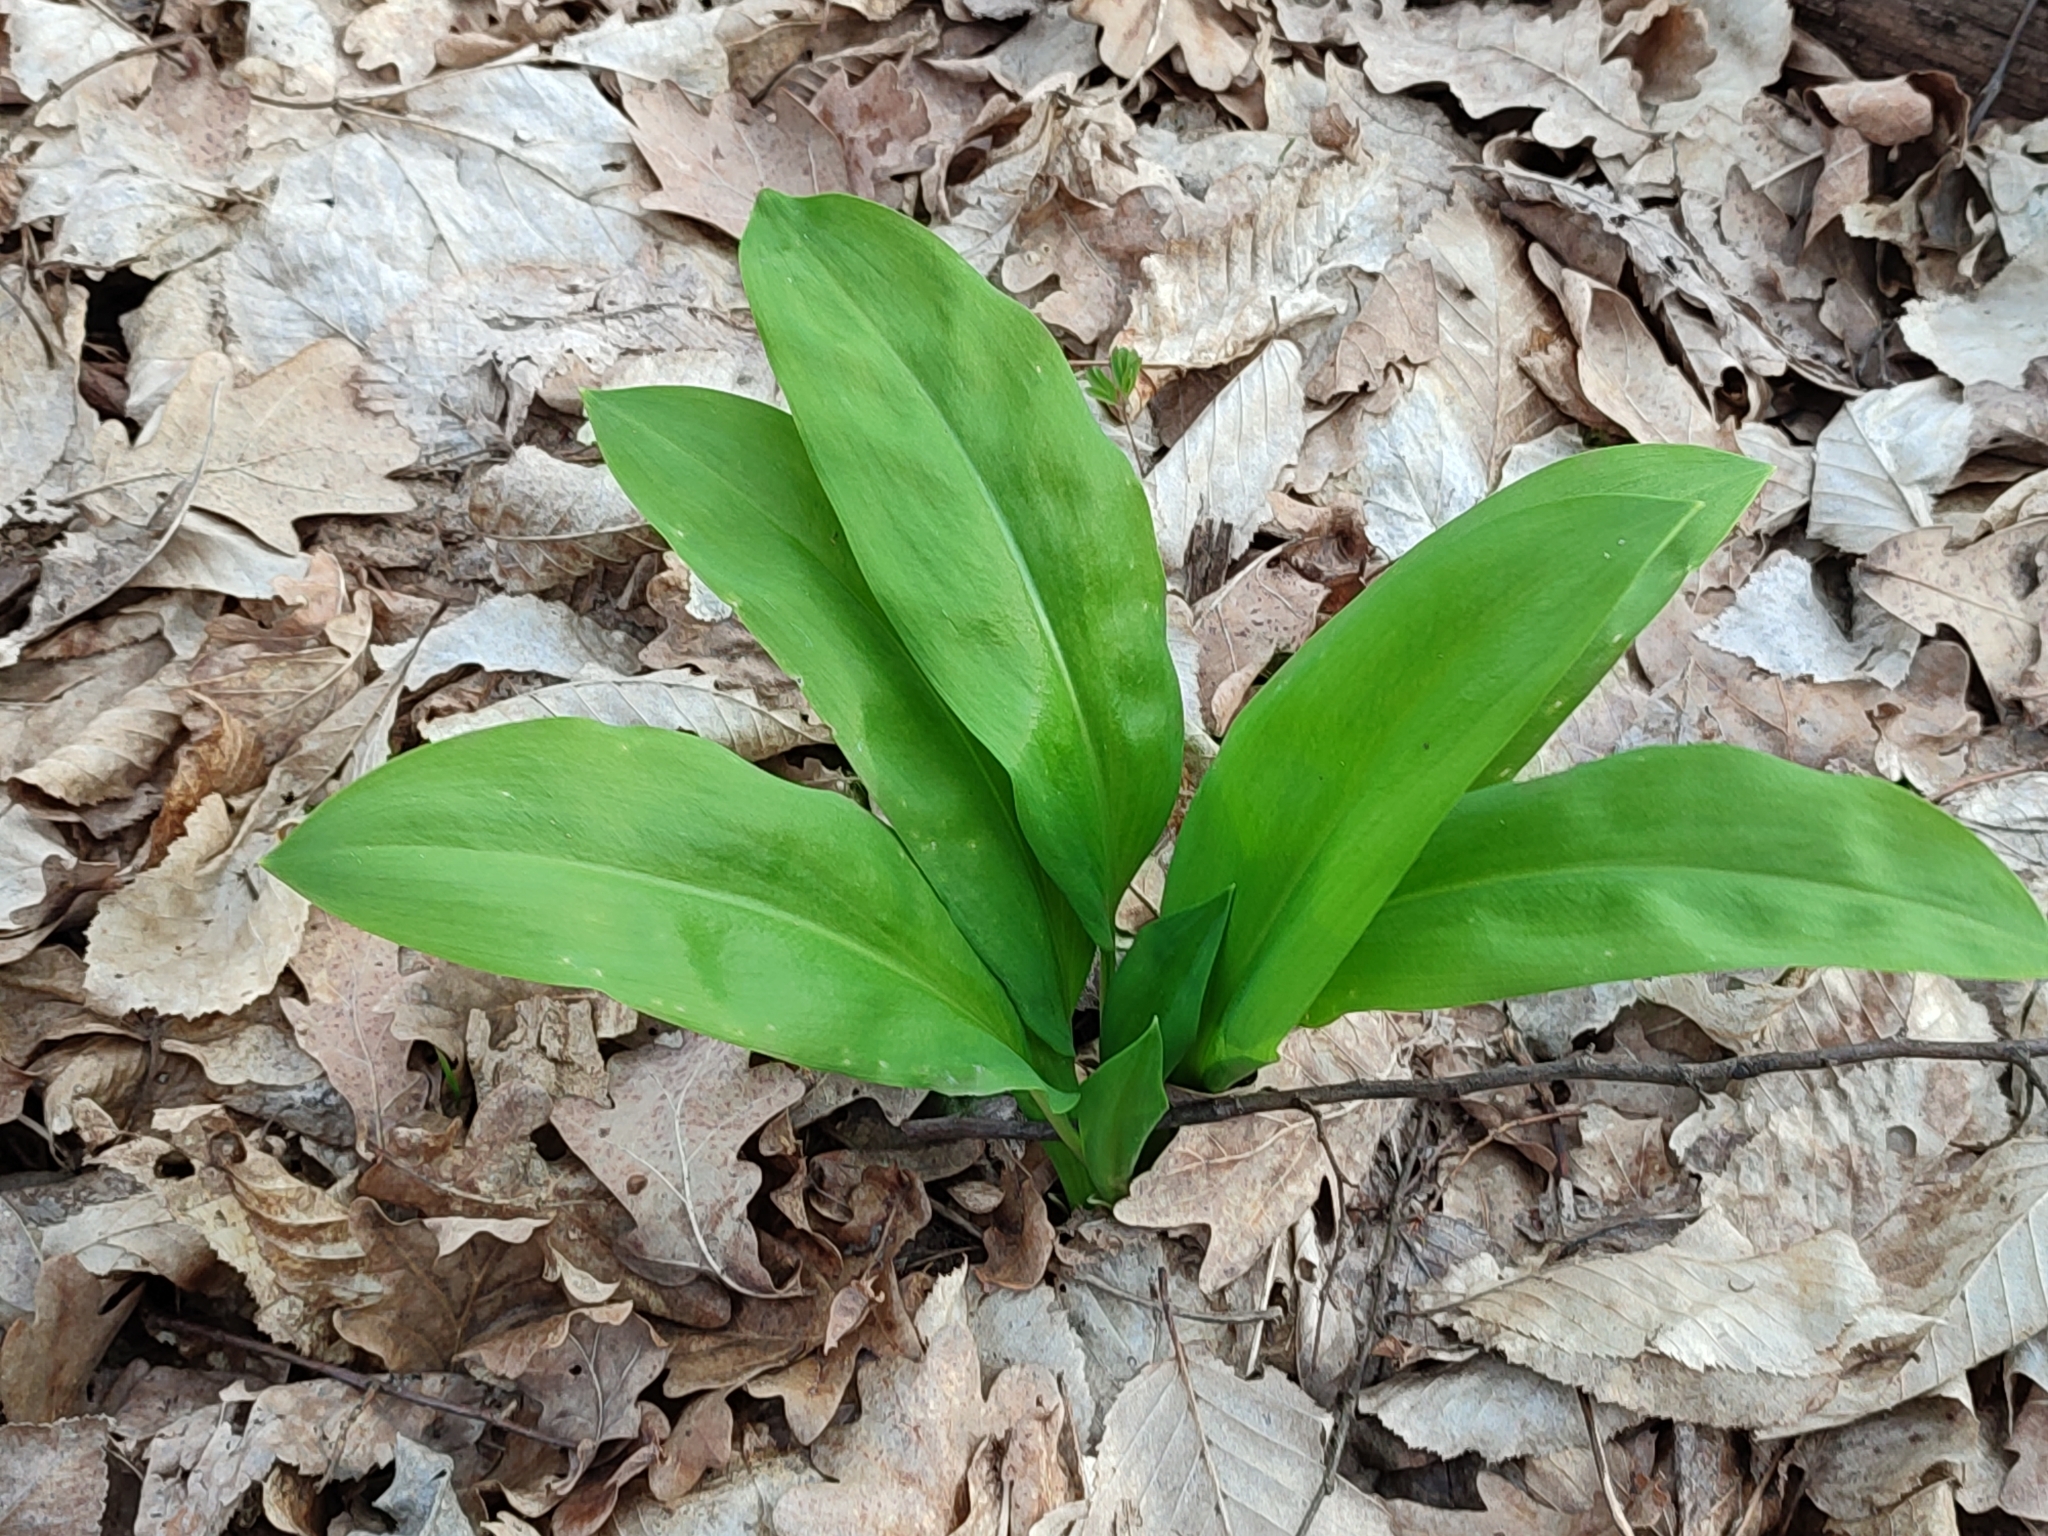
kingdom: Plantae
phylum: Tracheophyta
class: Liliopsida
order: Asparagales
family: Amaryllidaceae
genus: Allium
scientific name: Allium ursinum
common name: Ramsons
